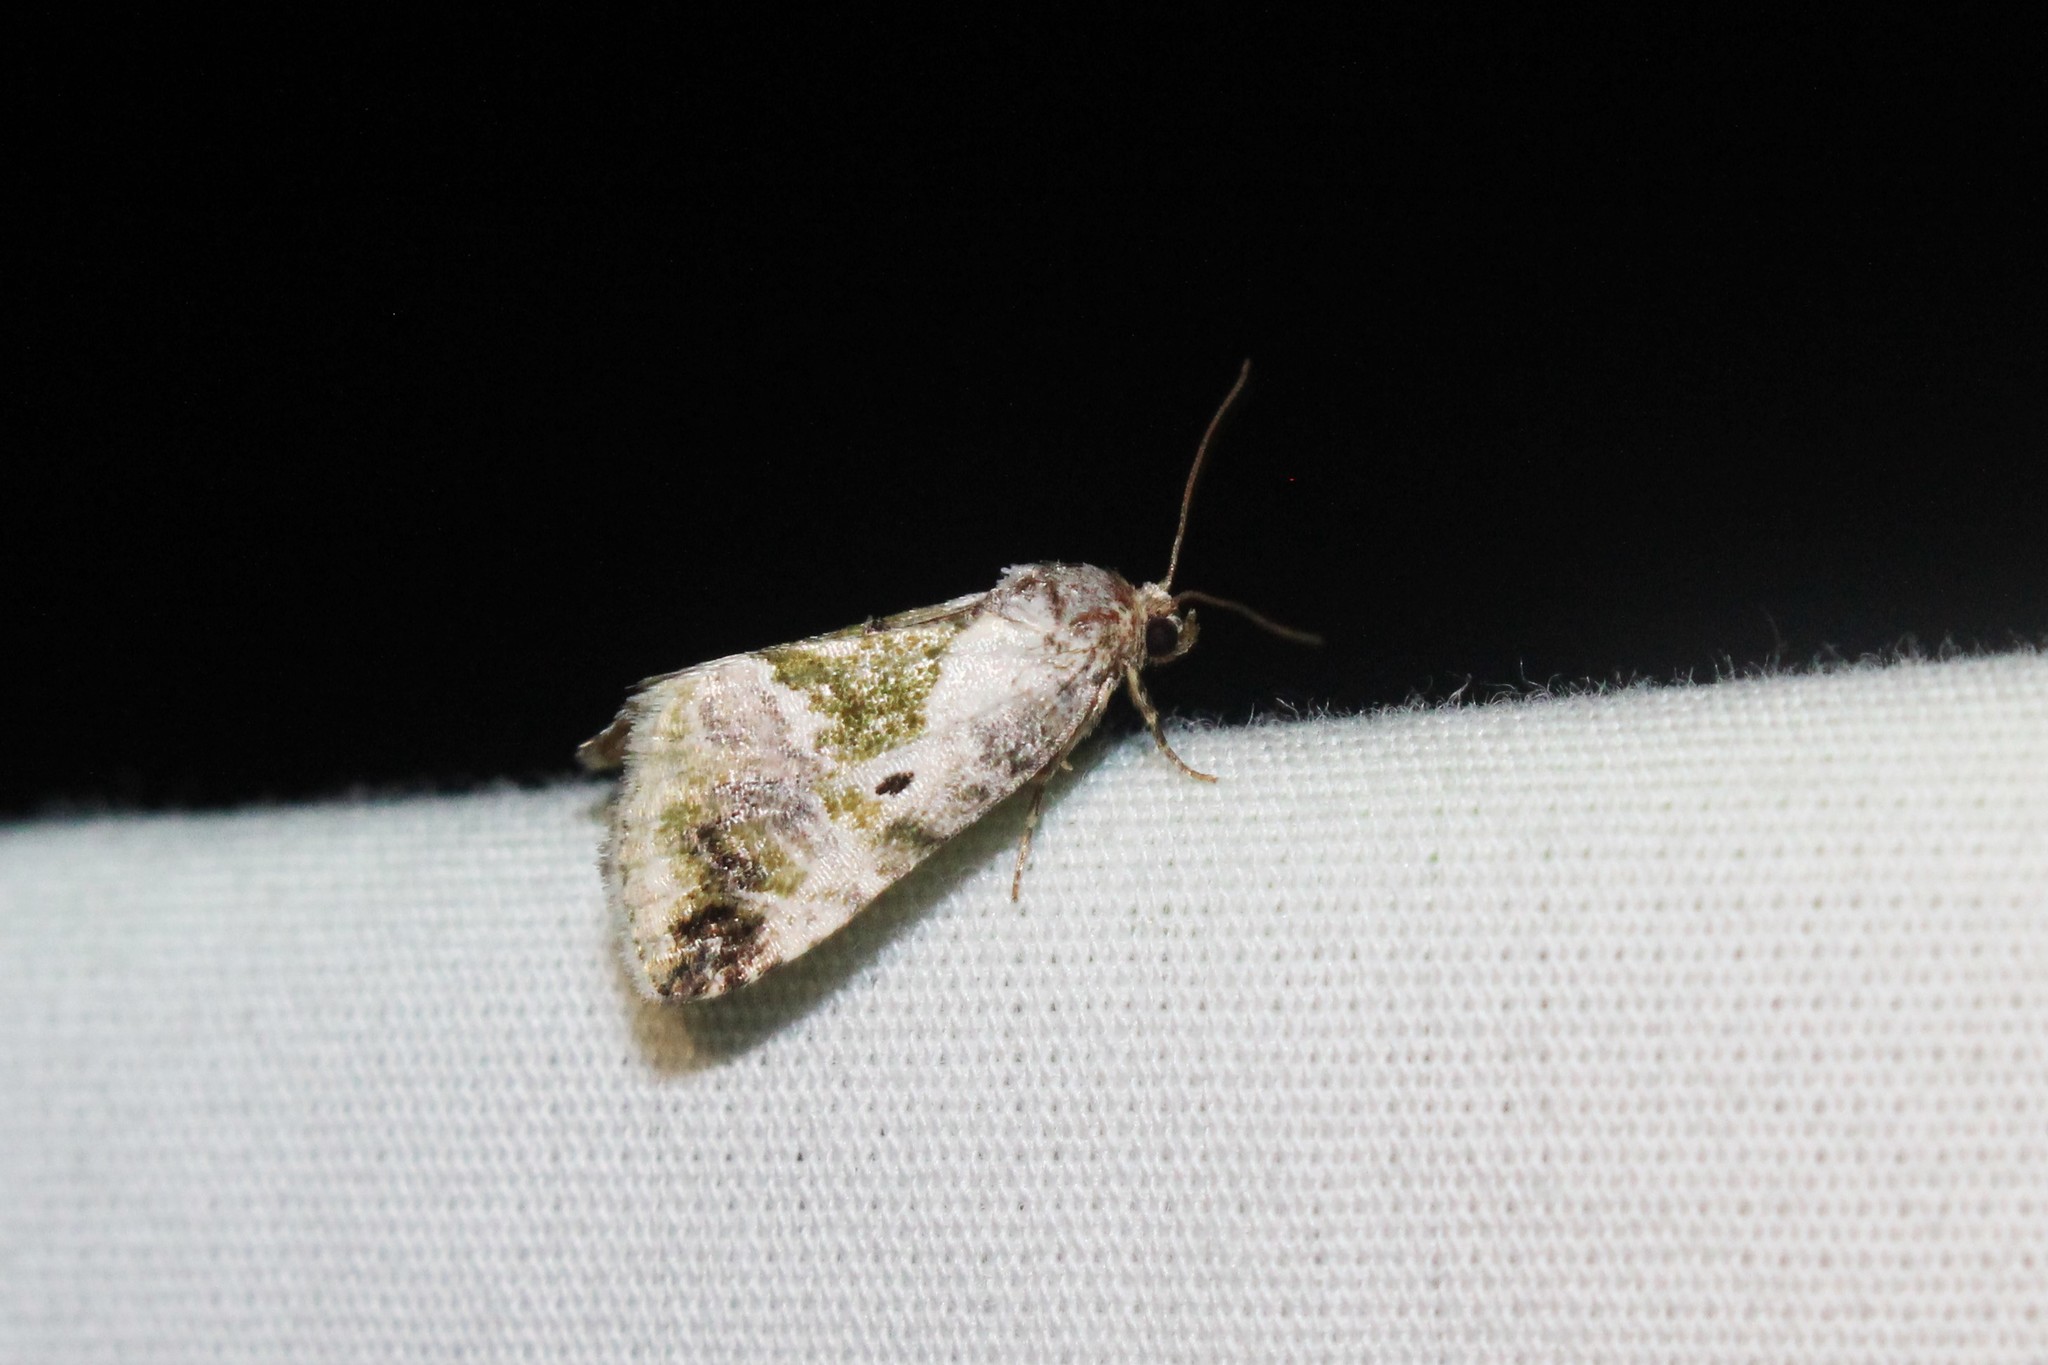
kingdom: Animalia
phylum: Arthropoda
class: Insecta
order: Lepidoptera
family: Noctuidae
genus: Maliattha
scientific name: Maliattha synochitis
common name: Black-dotted glyph
